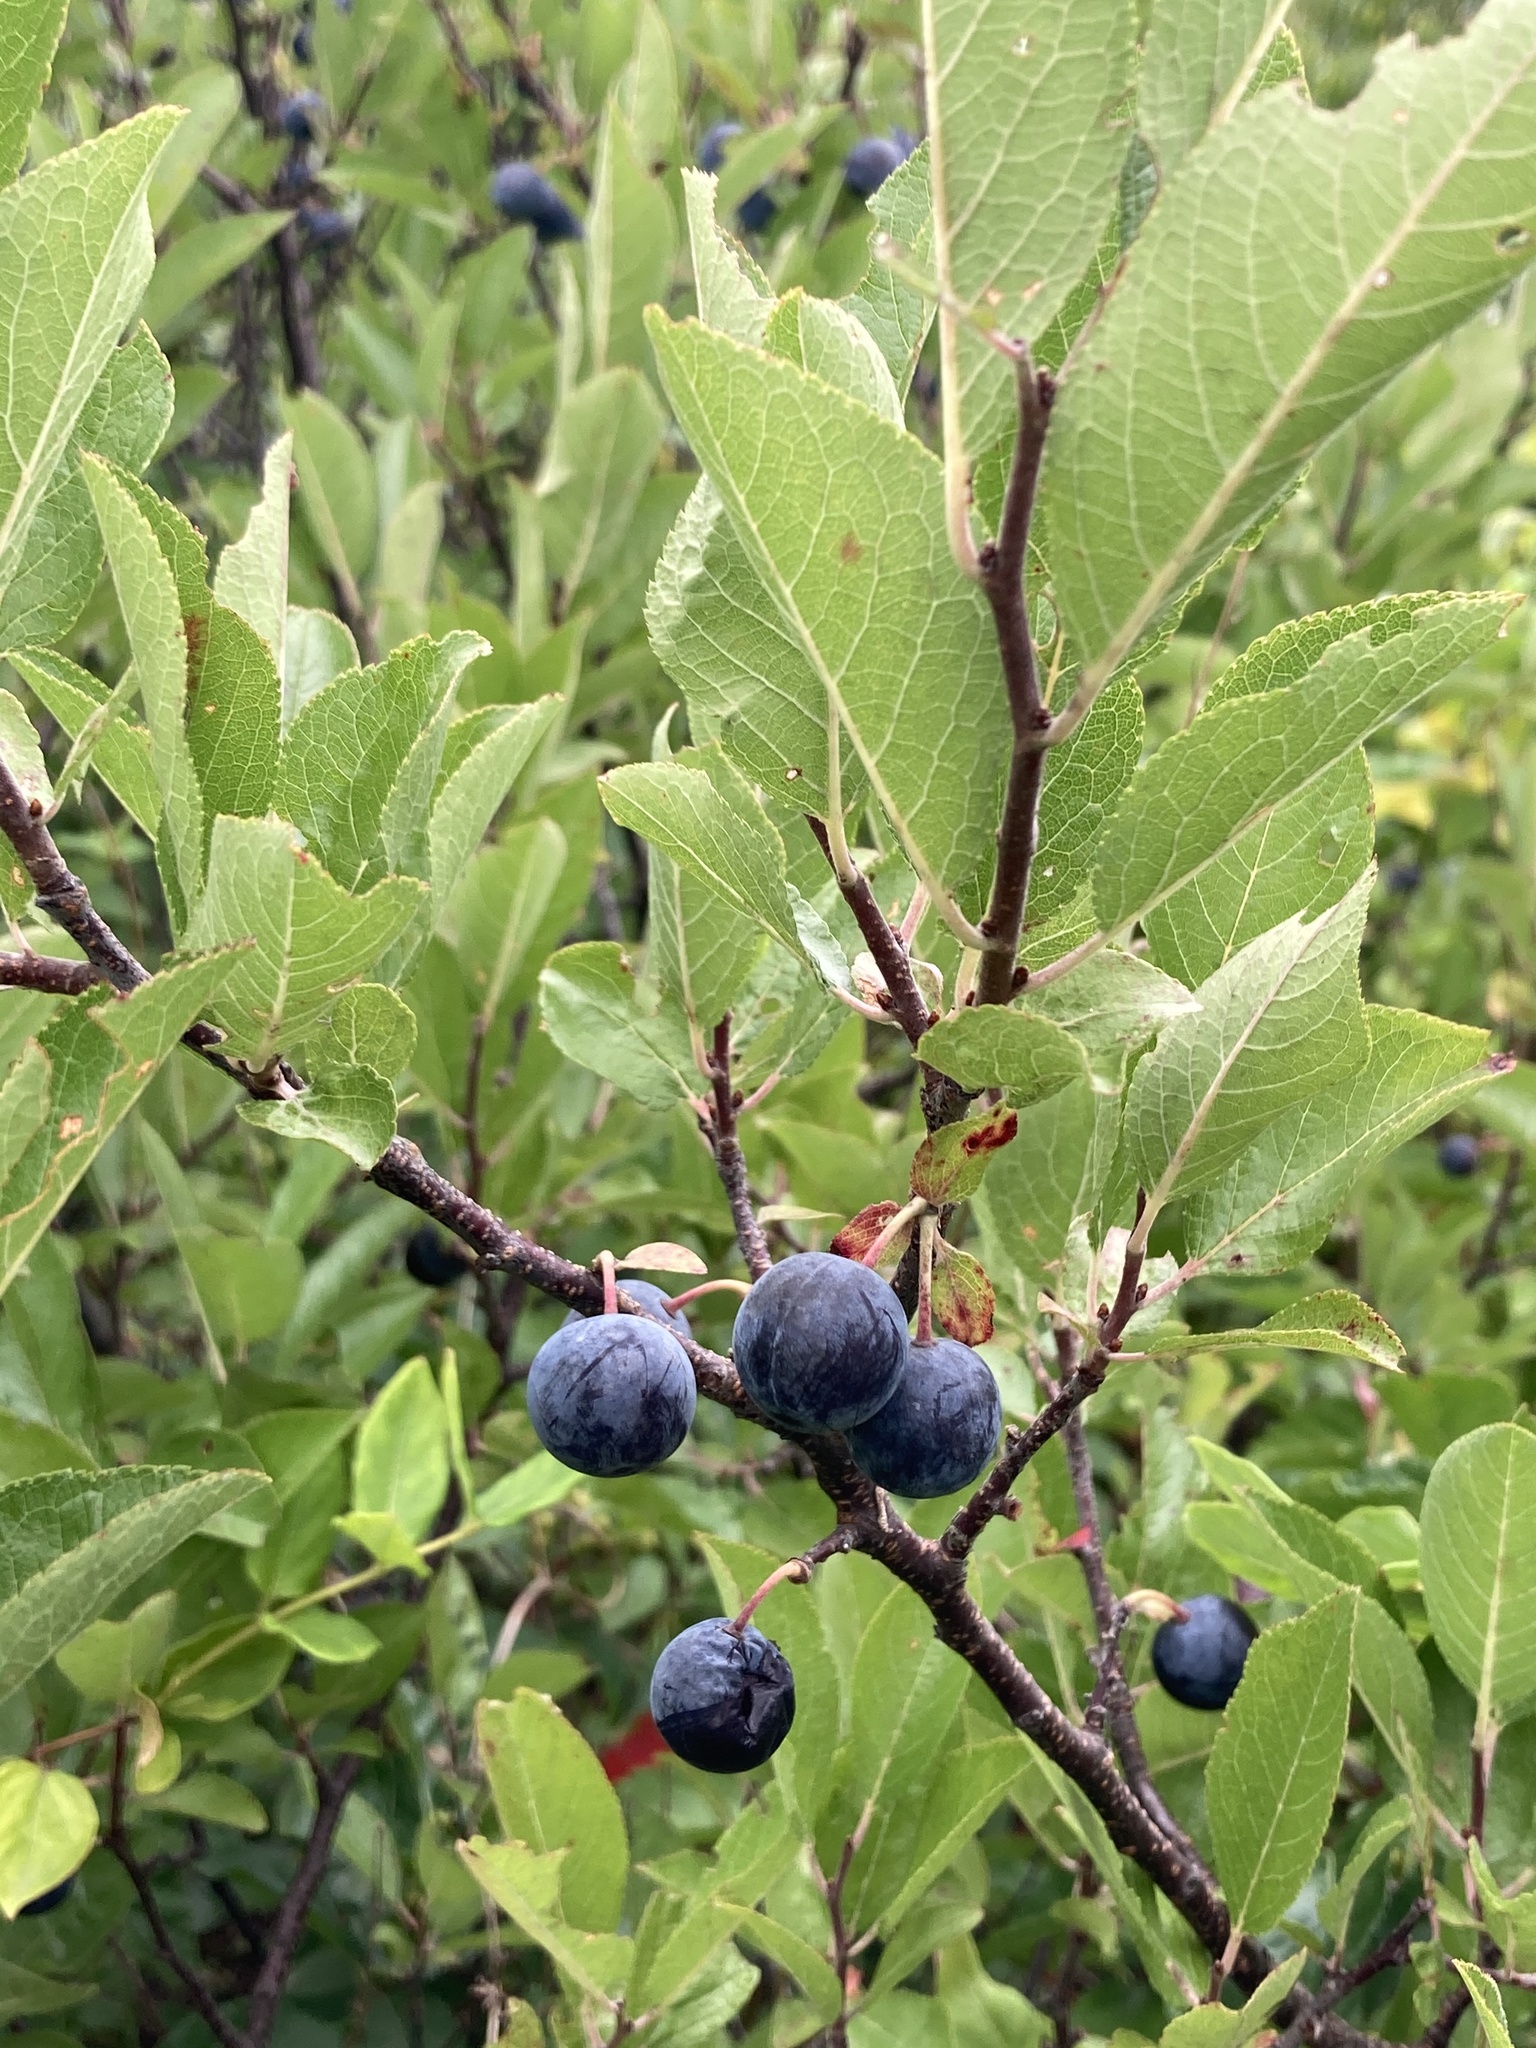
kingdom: Plantae
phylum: Tracheophyta
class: Magnoliopsida
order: Rosales
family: Rosaceae
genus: Prunus
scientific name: Prunus maritima
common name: Beach plum
